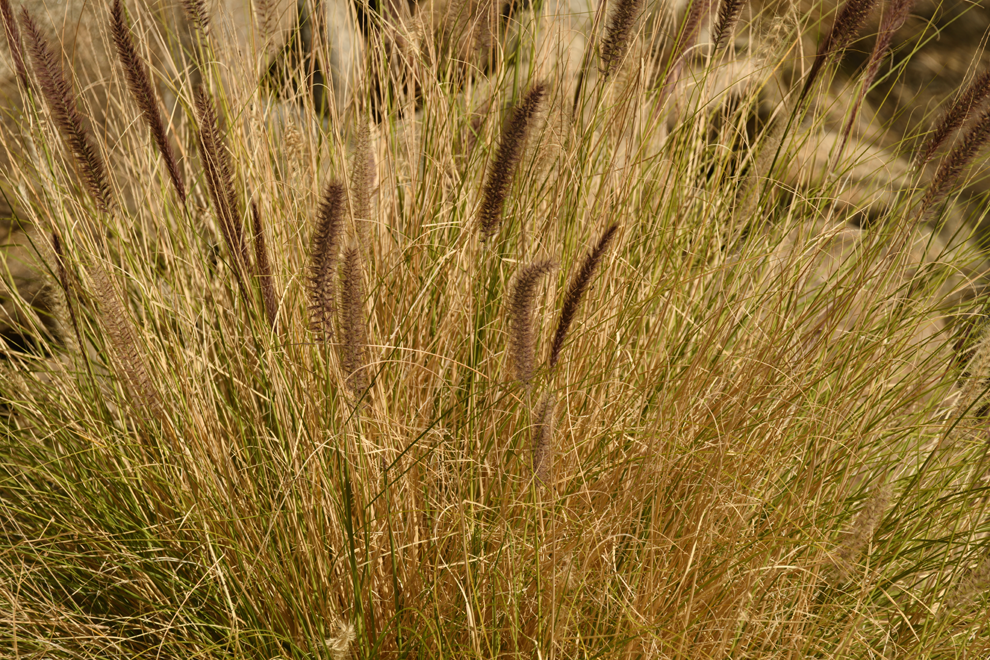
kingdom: Plantae
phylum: Tracheophyta
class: Liliopsida
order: Poales
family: Poaceae
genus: Cenchrus
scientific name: Cenchrus setaceus
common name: Crimson fountaingrass
